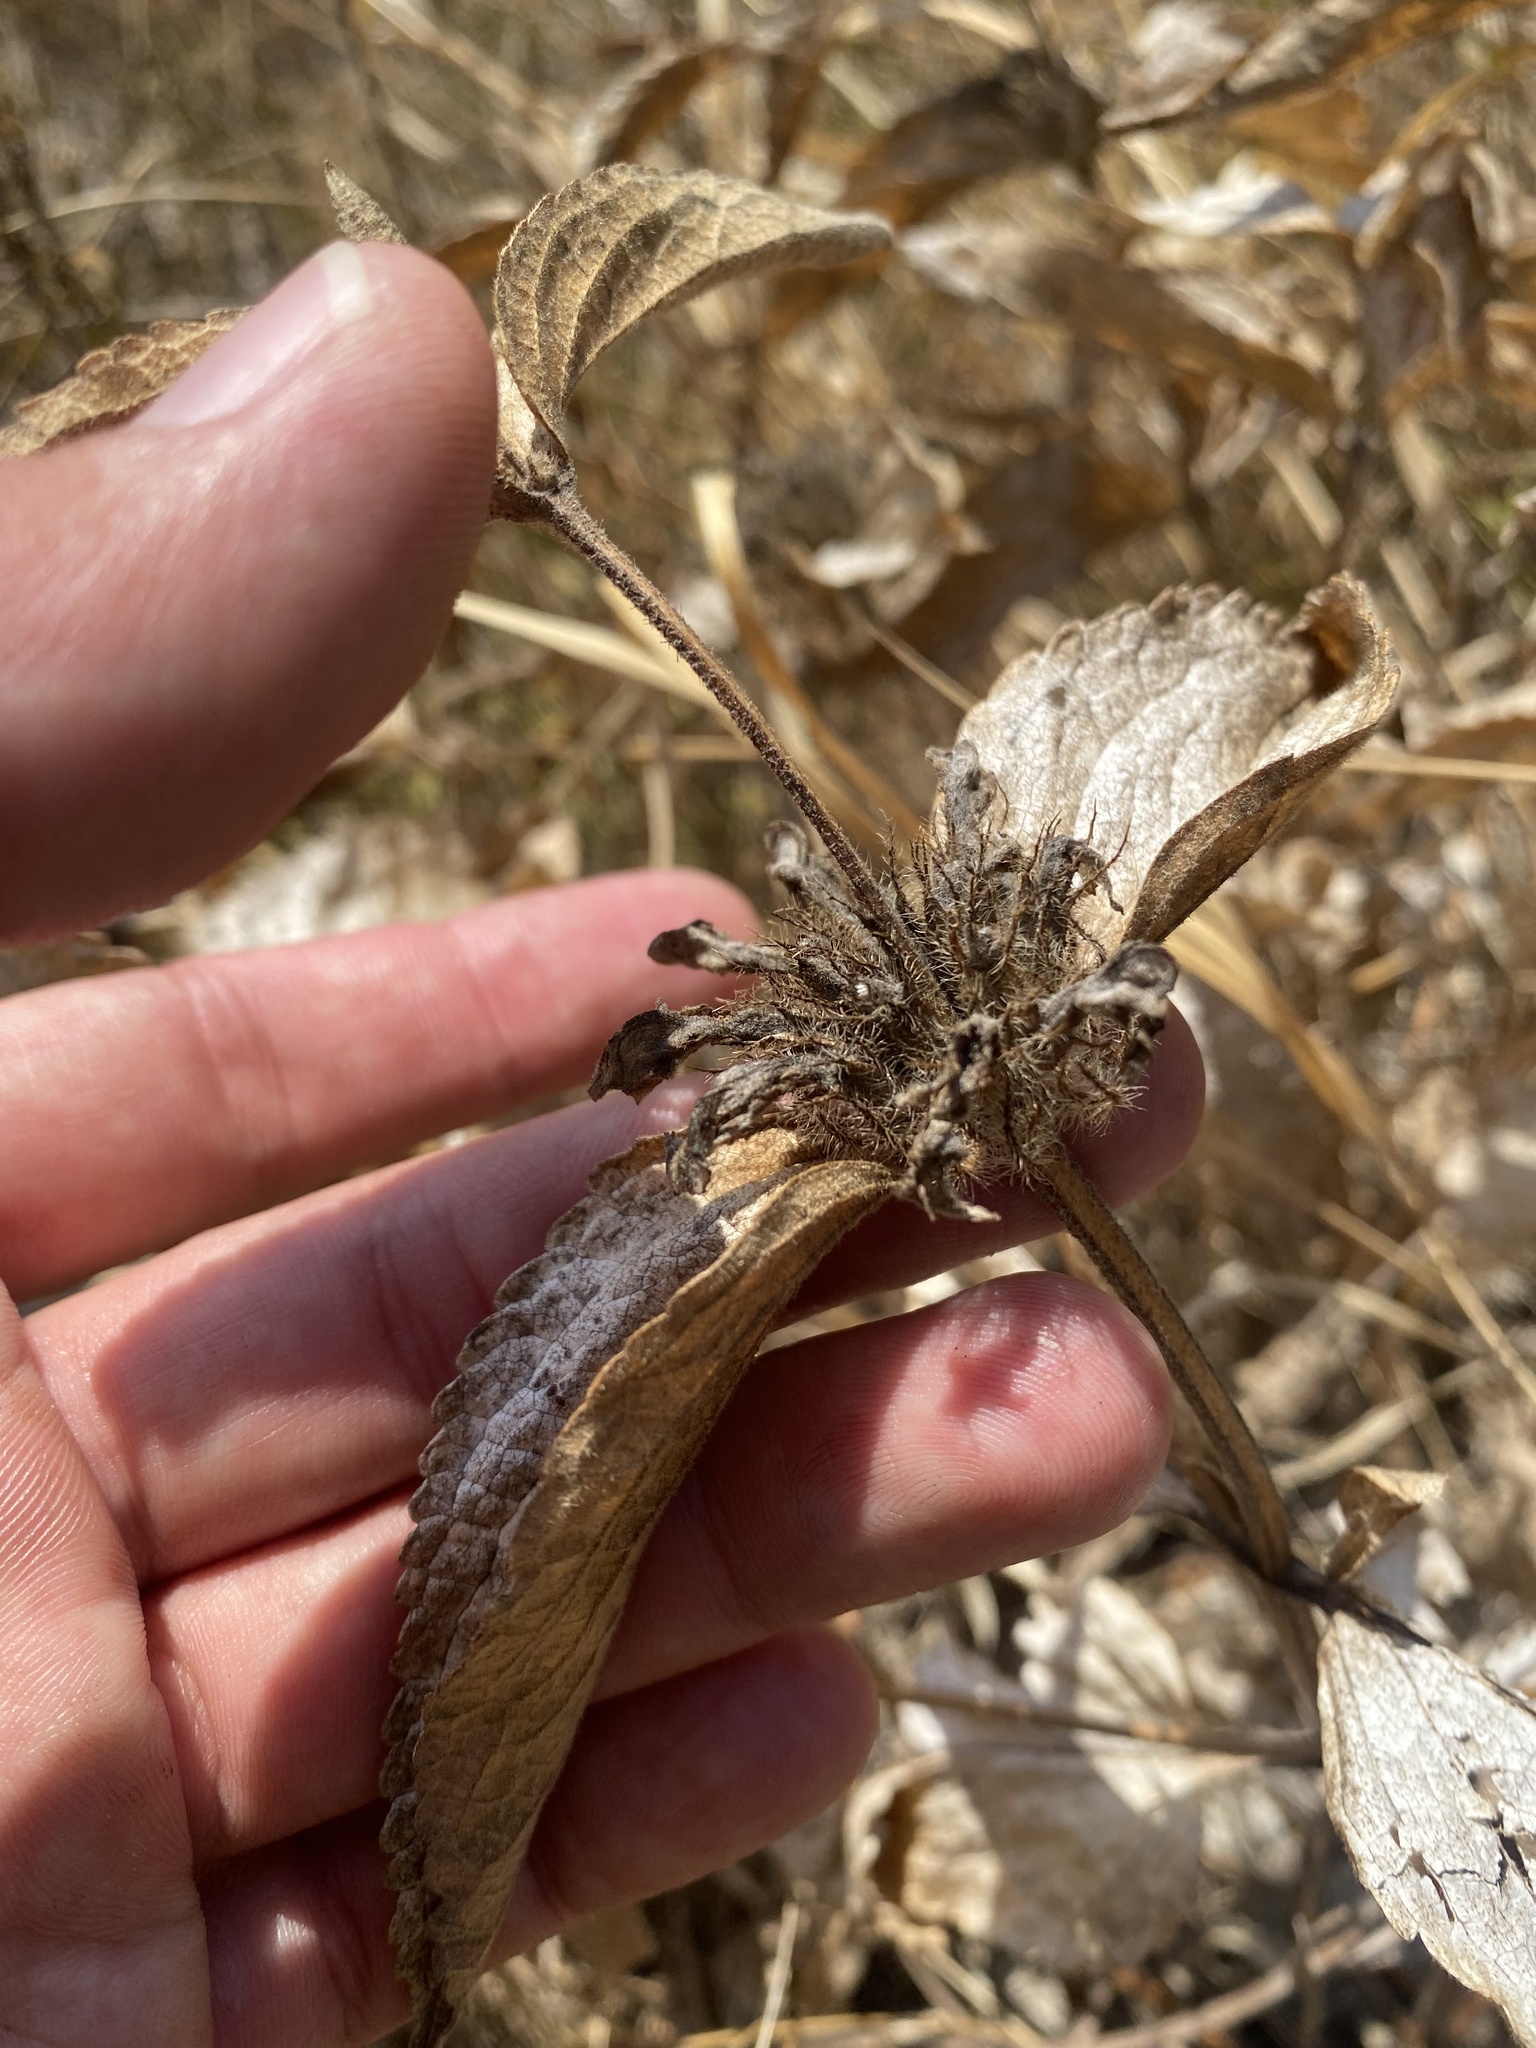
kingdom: Plantae
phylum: Tracheophyta
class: Magnoliopsida
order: Lamiales
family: Lamiaceae
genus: Phlomis
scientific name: Phlomis herba-venti
